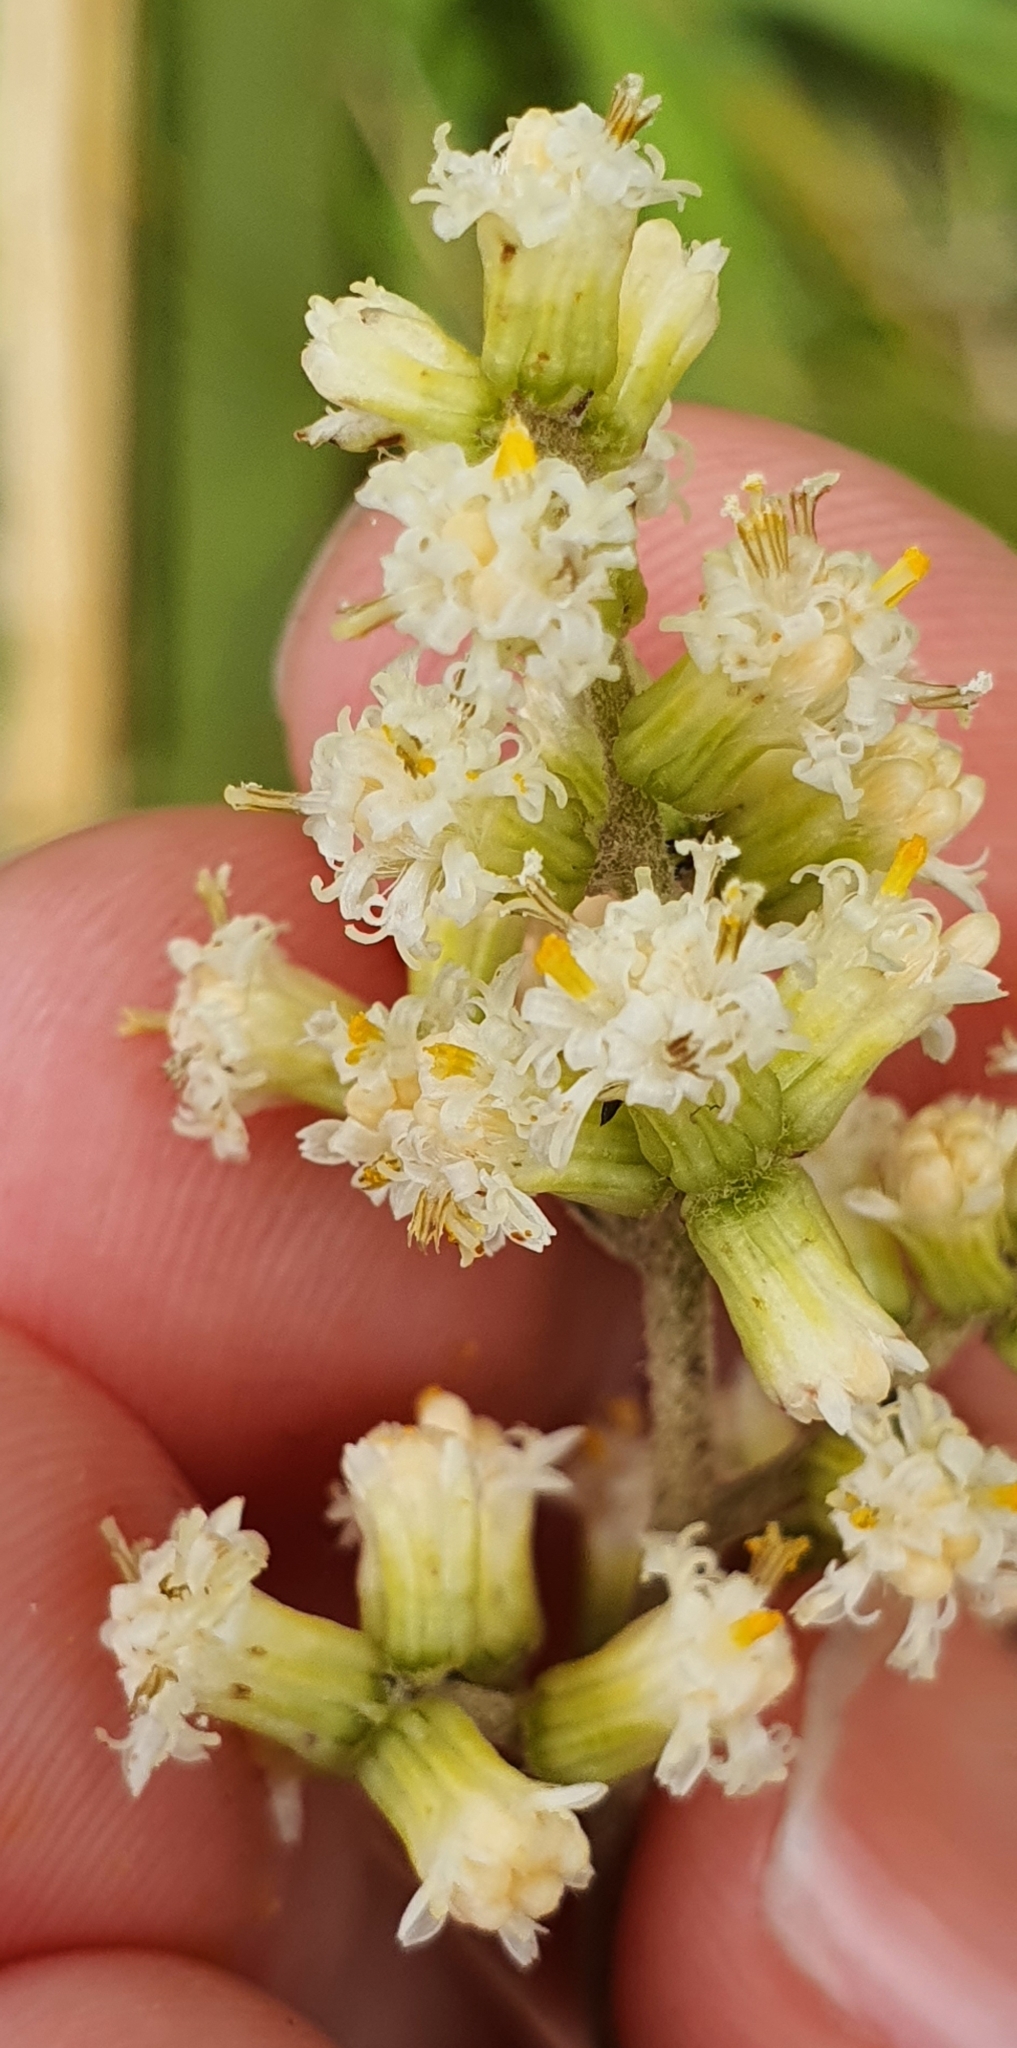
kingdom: Plantae
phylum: Tracheophyta
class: Magnoliopsida
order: Asterales
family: Asteraceae
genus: Brachyglottis
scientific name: Brachyglottis repanda
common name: Hedge ragwort
